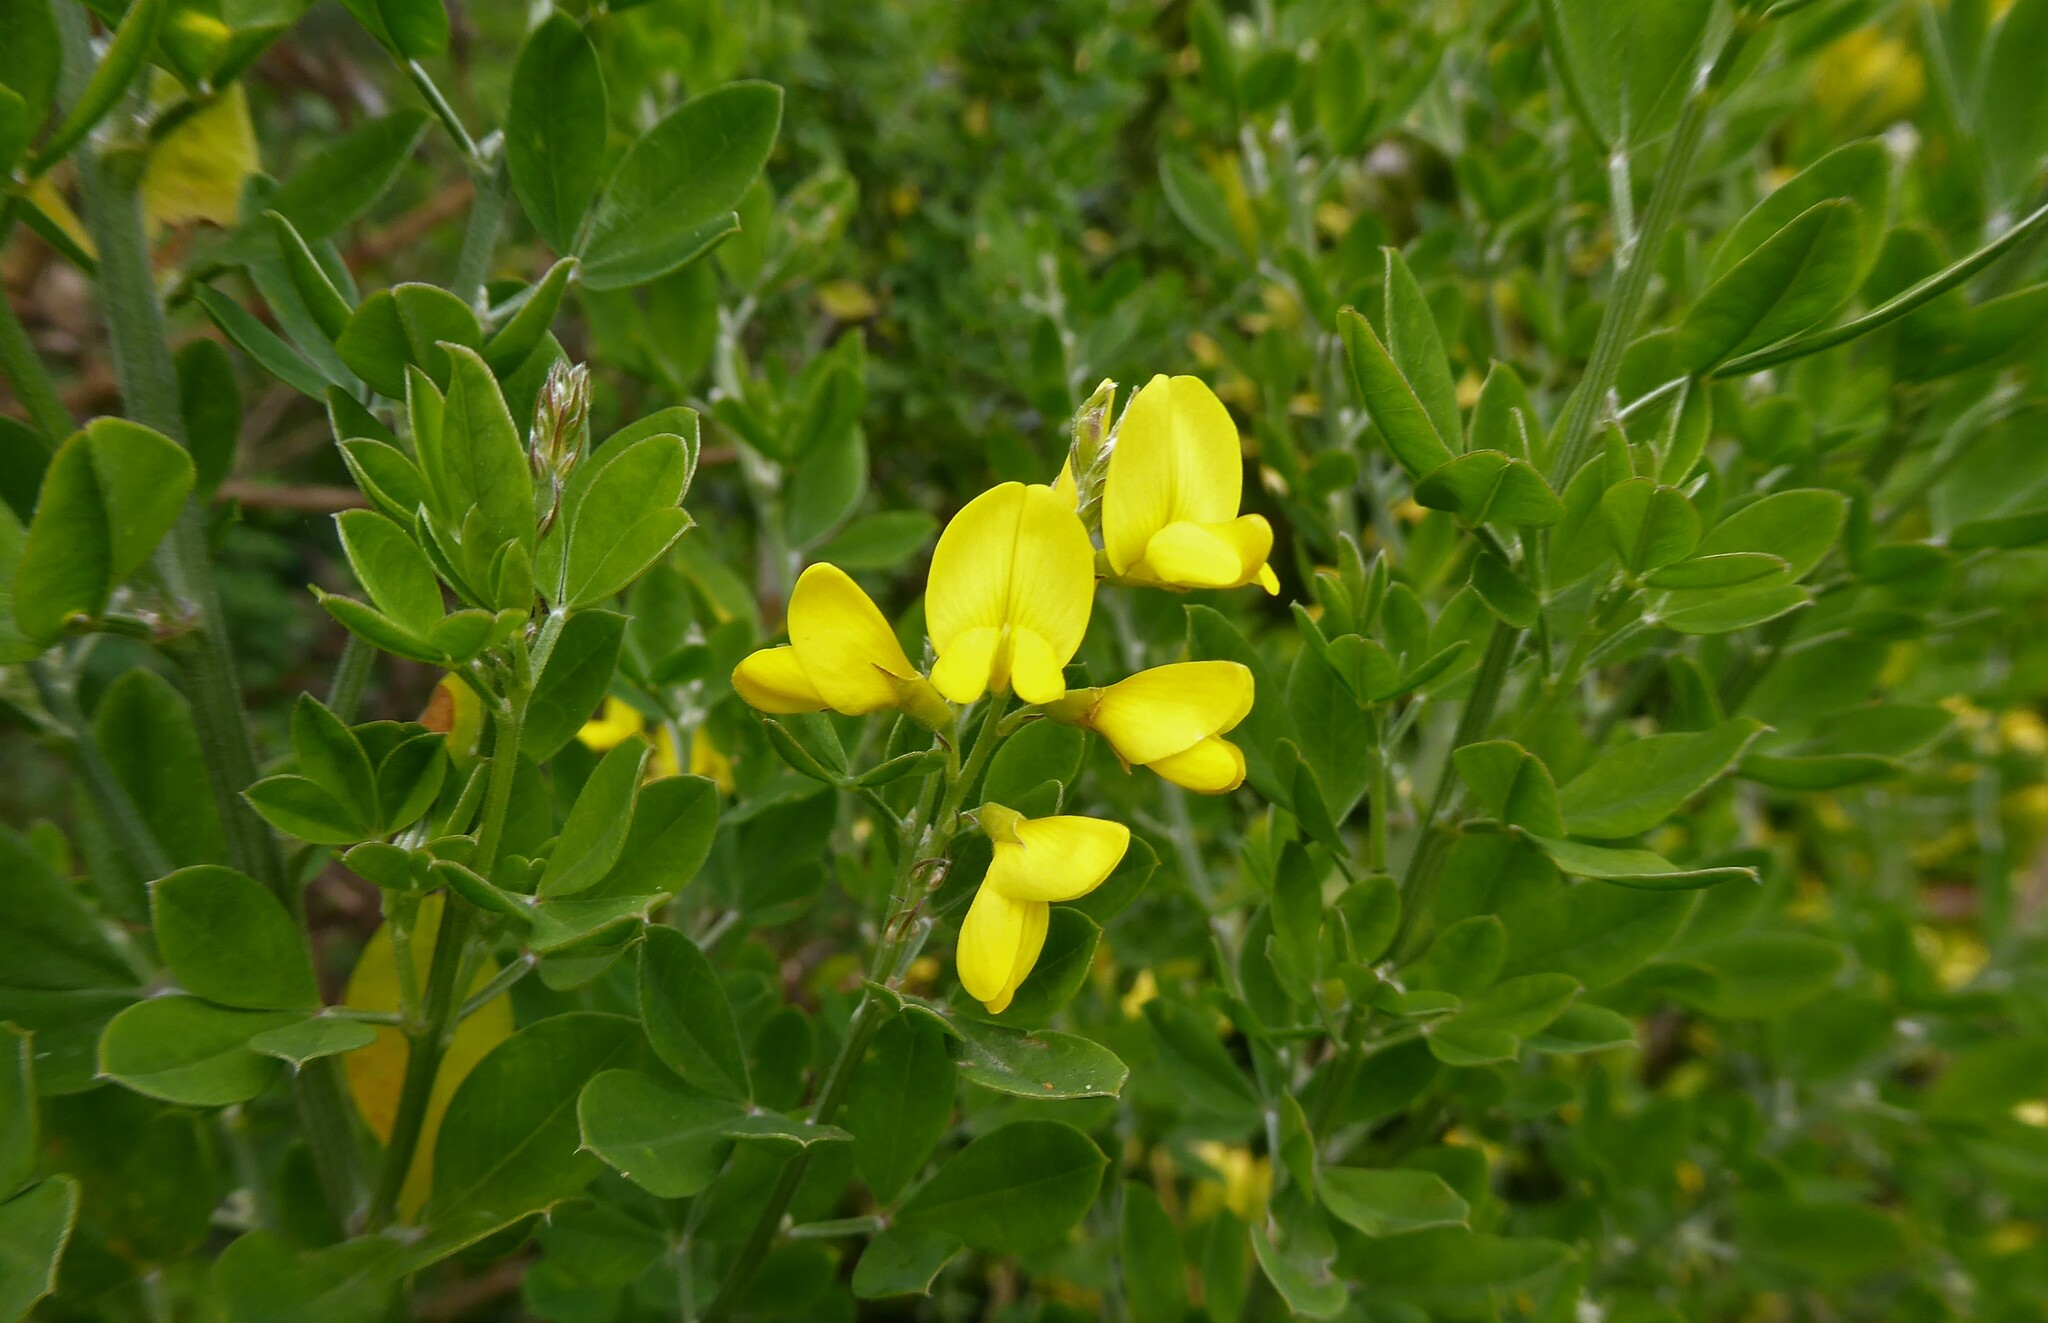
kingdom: Plantae
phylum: Tracheophyta
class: Magnoliopsida
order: Fabales
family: Fabaceae
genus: Genista
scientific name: Genista monspessulana
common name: Montpellier broom
